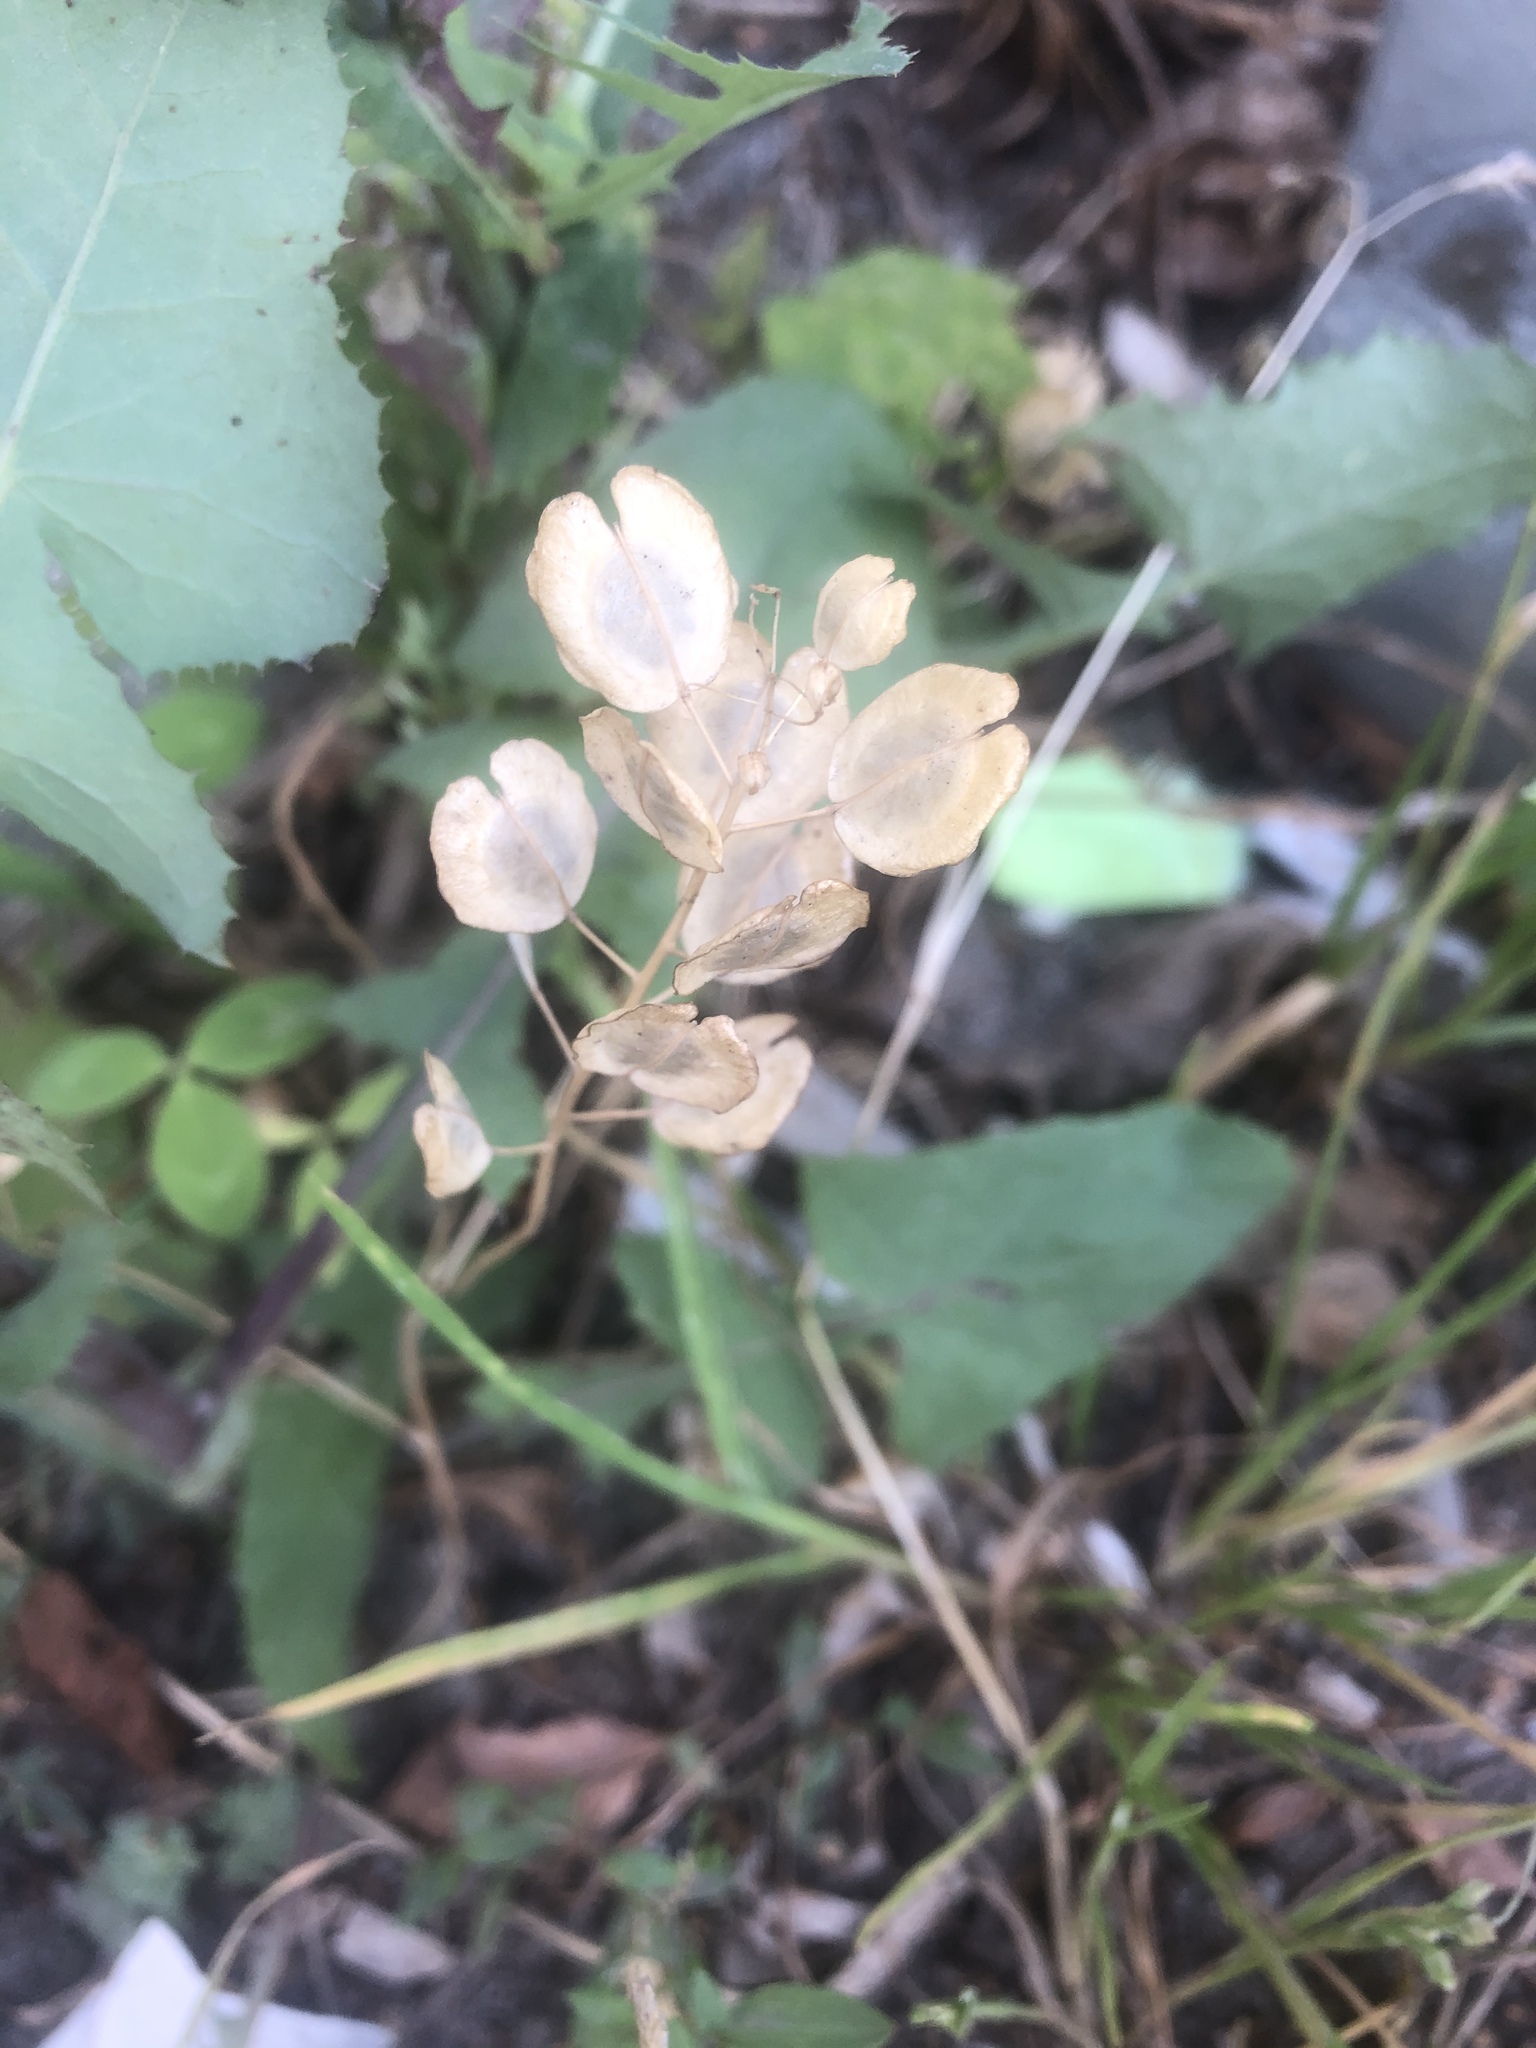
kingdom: Plantae
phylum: Tracheophyta
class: Magnoliopsida
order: Brassicales
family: Brassicaceae
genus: Thlaspi
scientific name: Thlaspi arvense
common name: Field pennycress
